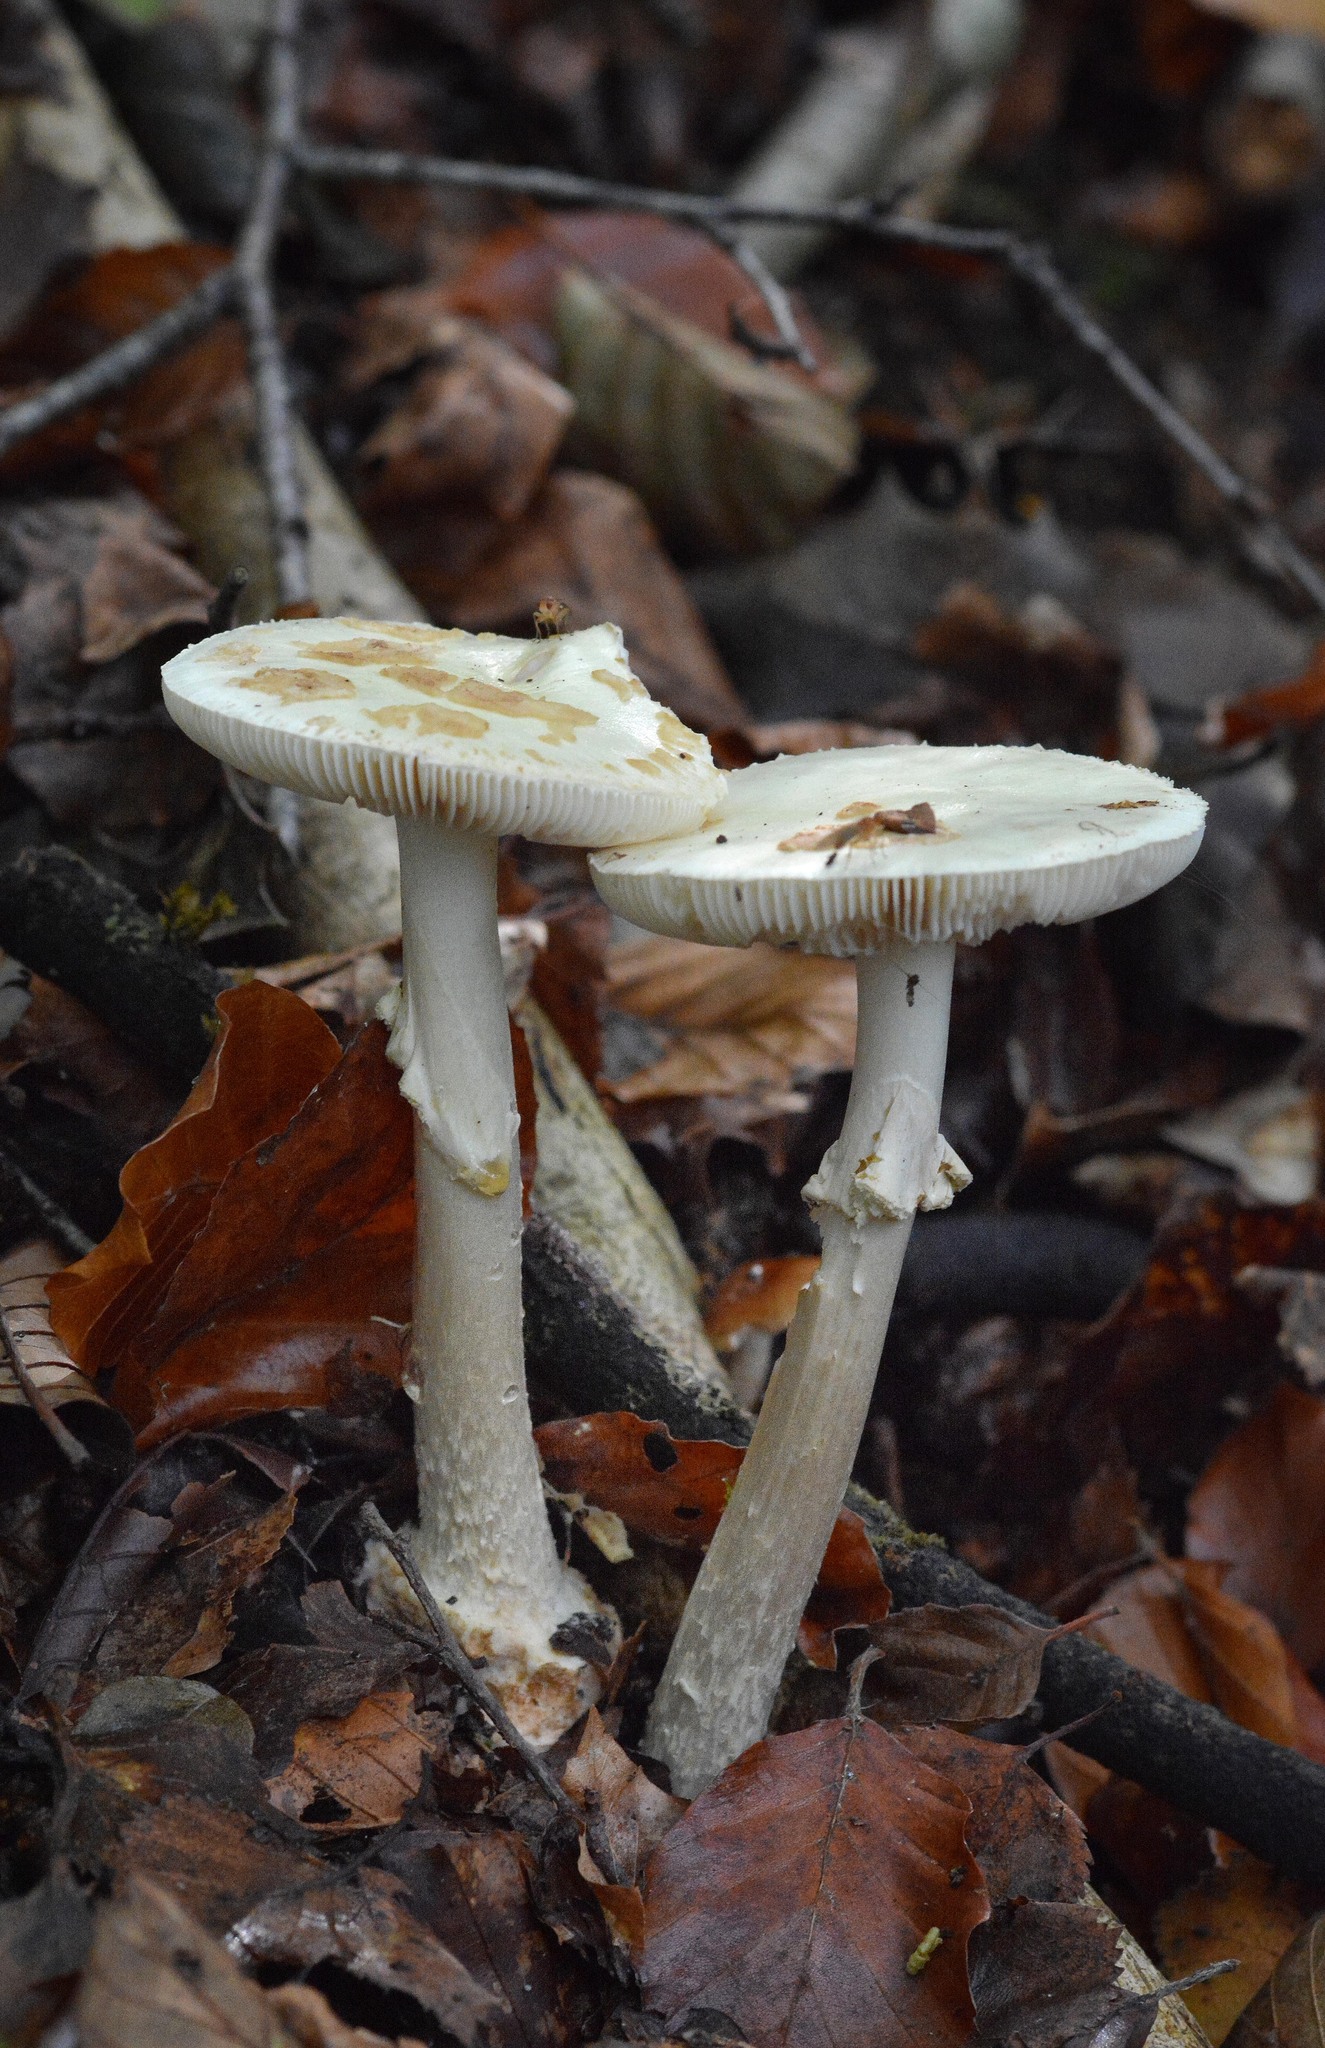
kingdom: Fungi
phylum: Basidiomycota
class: Agaricomycetes
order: Agaricales
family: Amanitaceae
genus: Amanita
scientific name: Amanita citrina
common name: False death-cap
